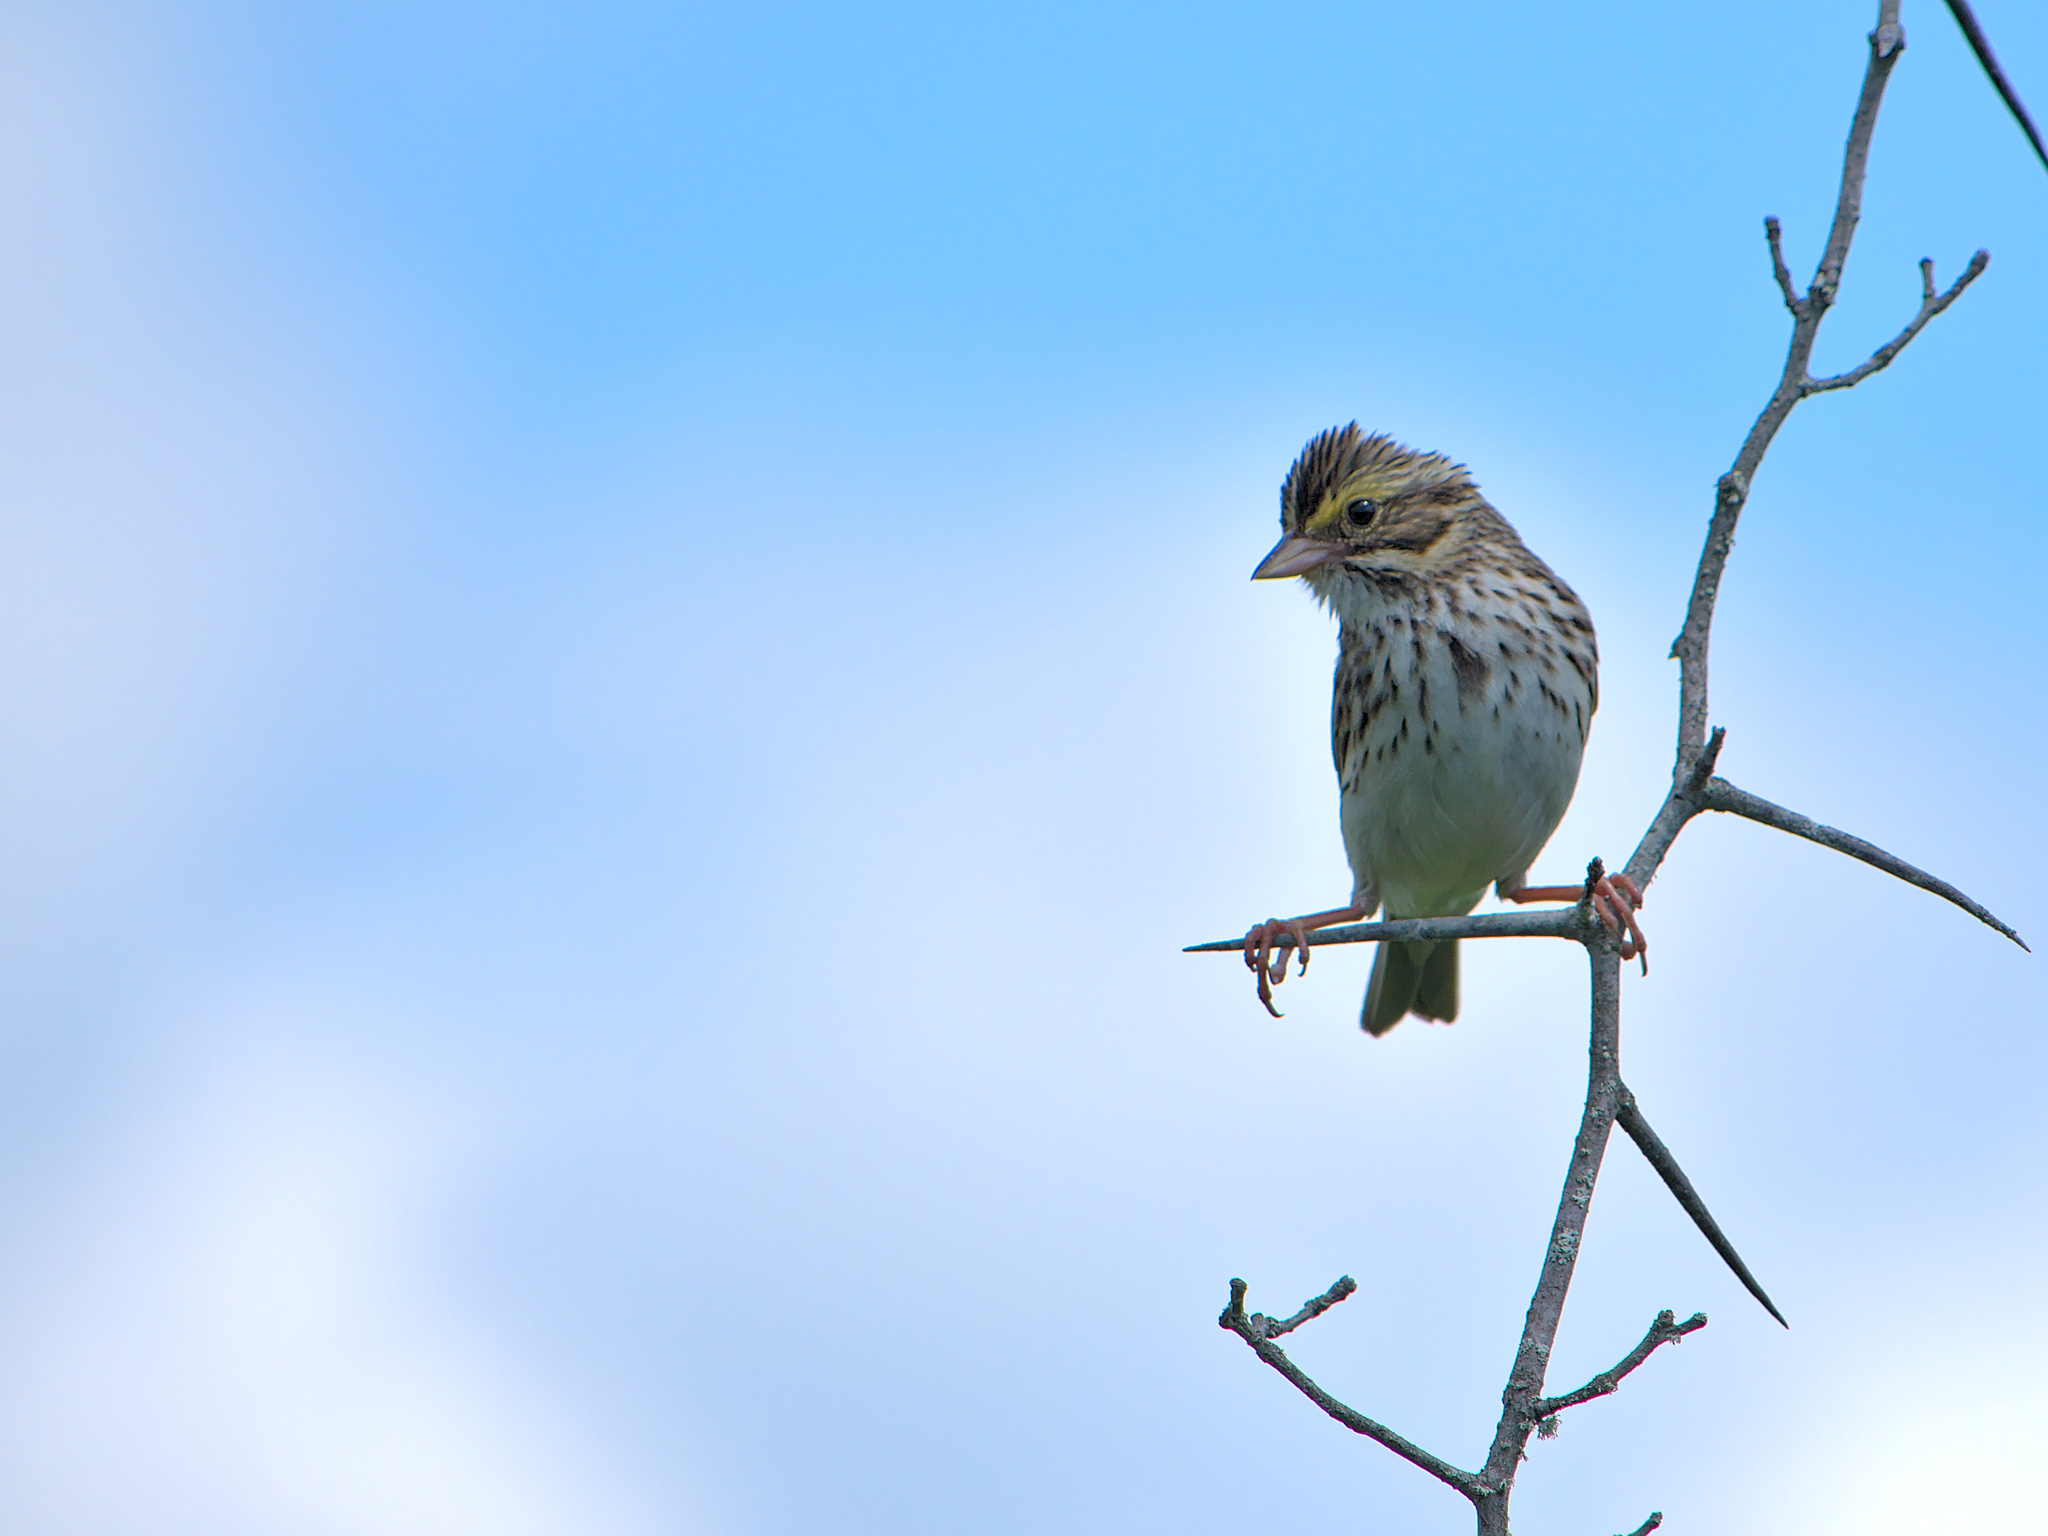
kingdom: Animalia
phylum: Chordata
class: Aves
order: Passeriformes
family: Passerellidae
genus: Passerculus
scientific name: Passerculus sandwichensis
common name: Savannah sparrow
